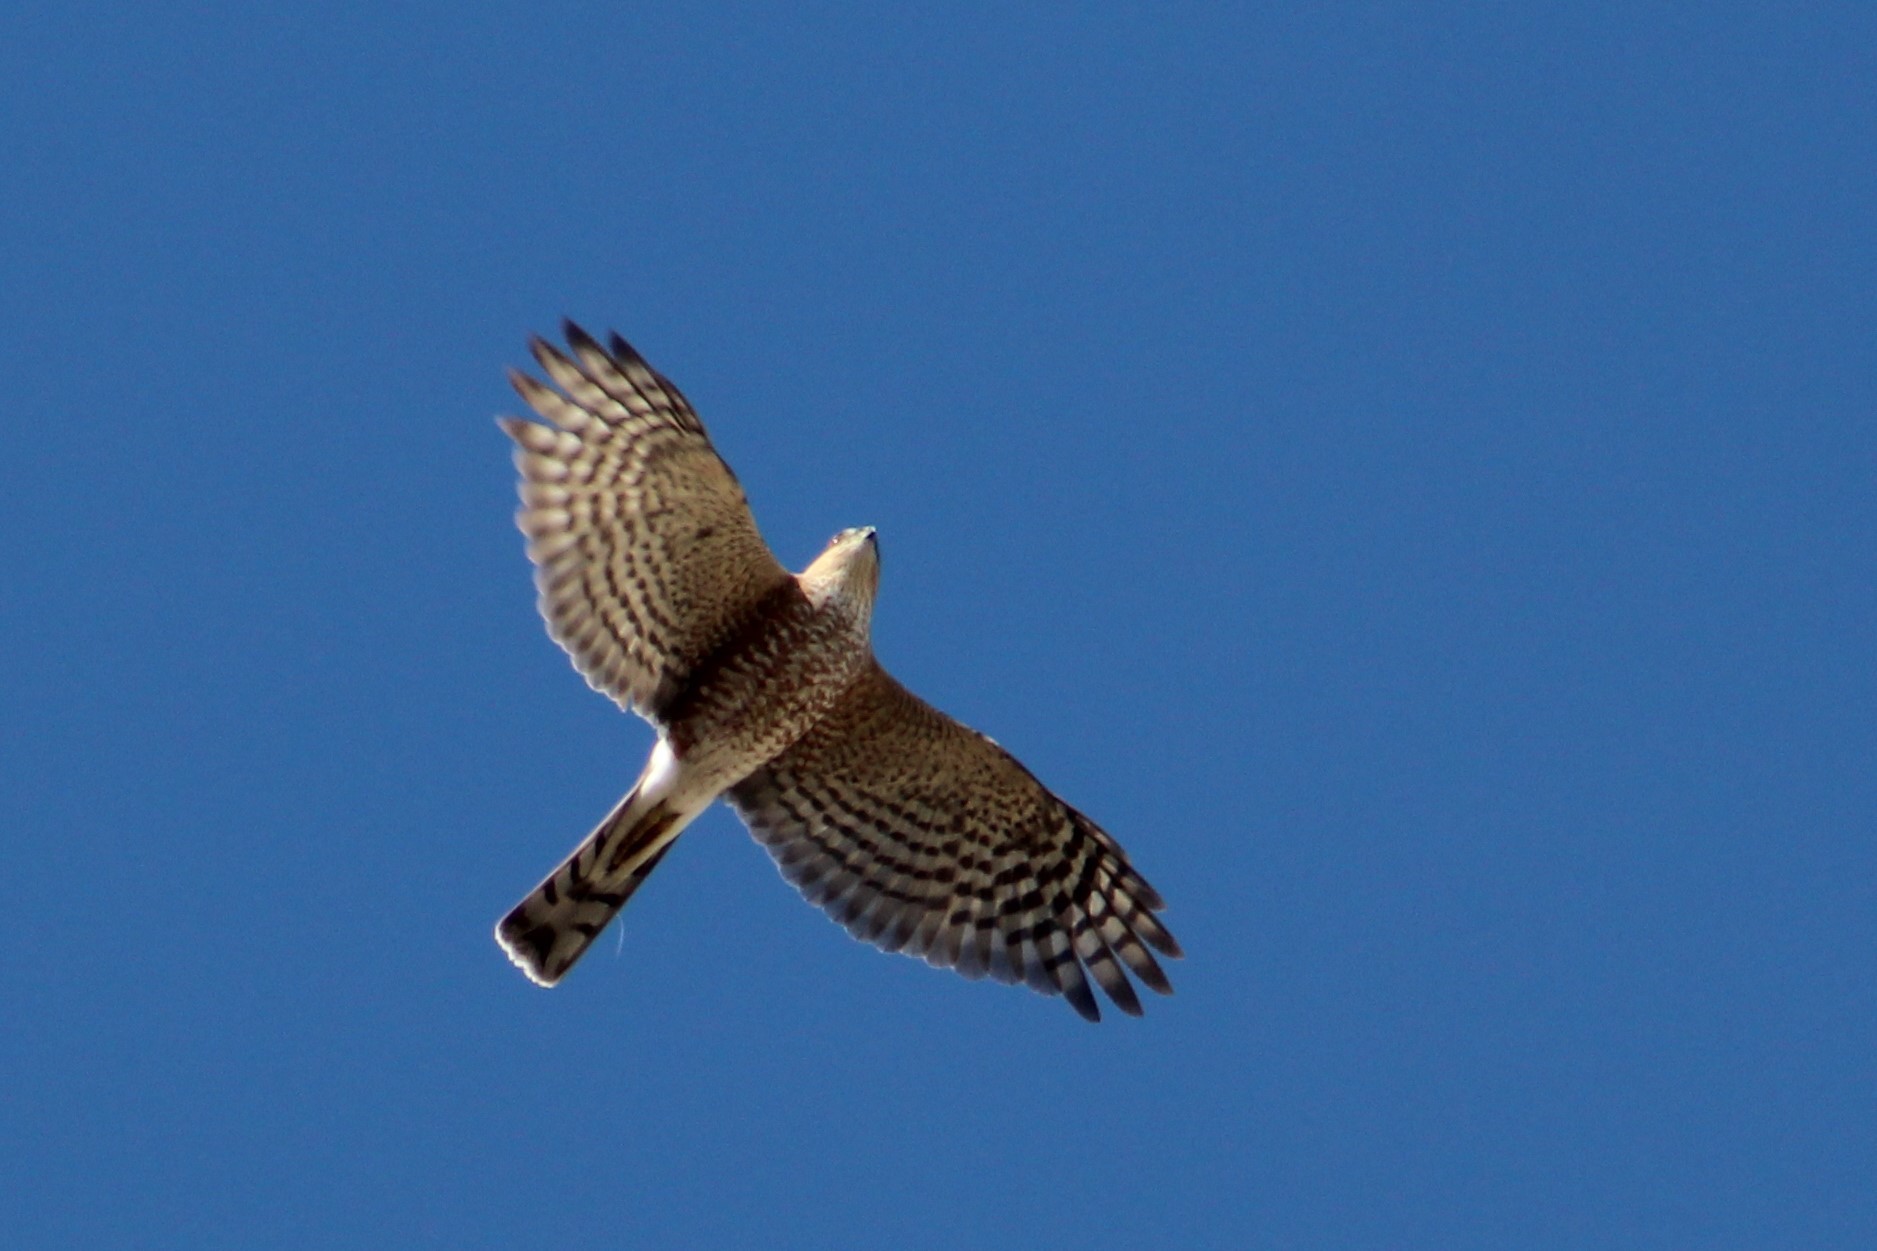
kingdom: Animalia
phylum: Chordata
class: Aves
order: Accipitriformes
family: Accipitridae
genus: Accipiter
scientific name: Accipiter striatus
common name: Sharp-shinned hawk
